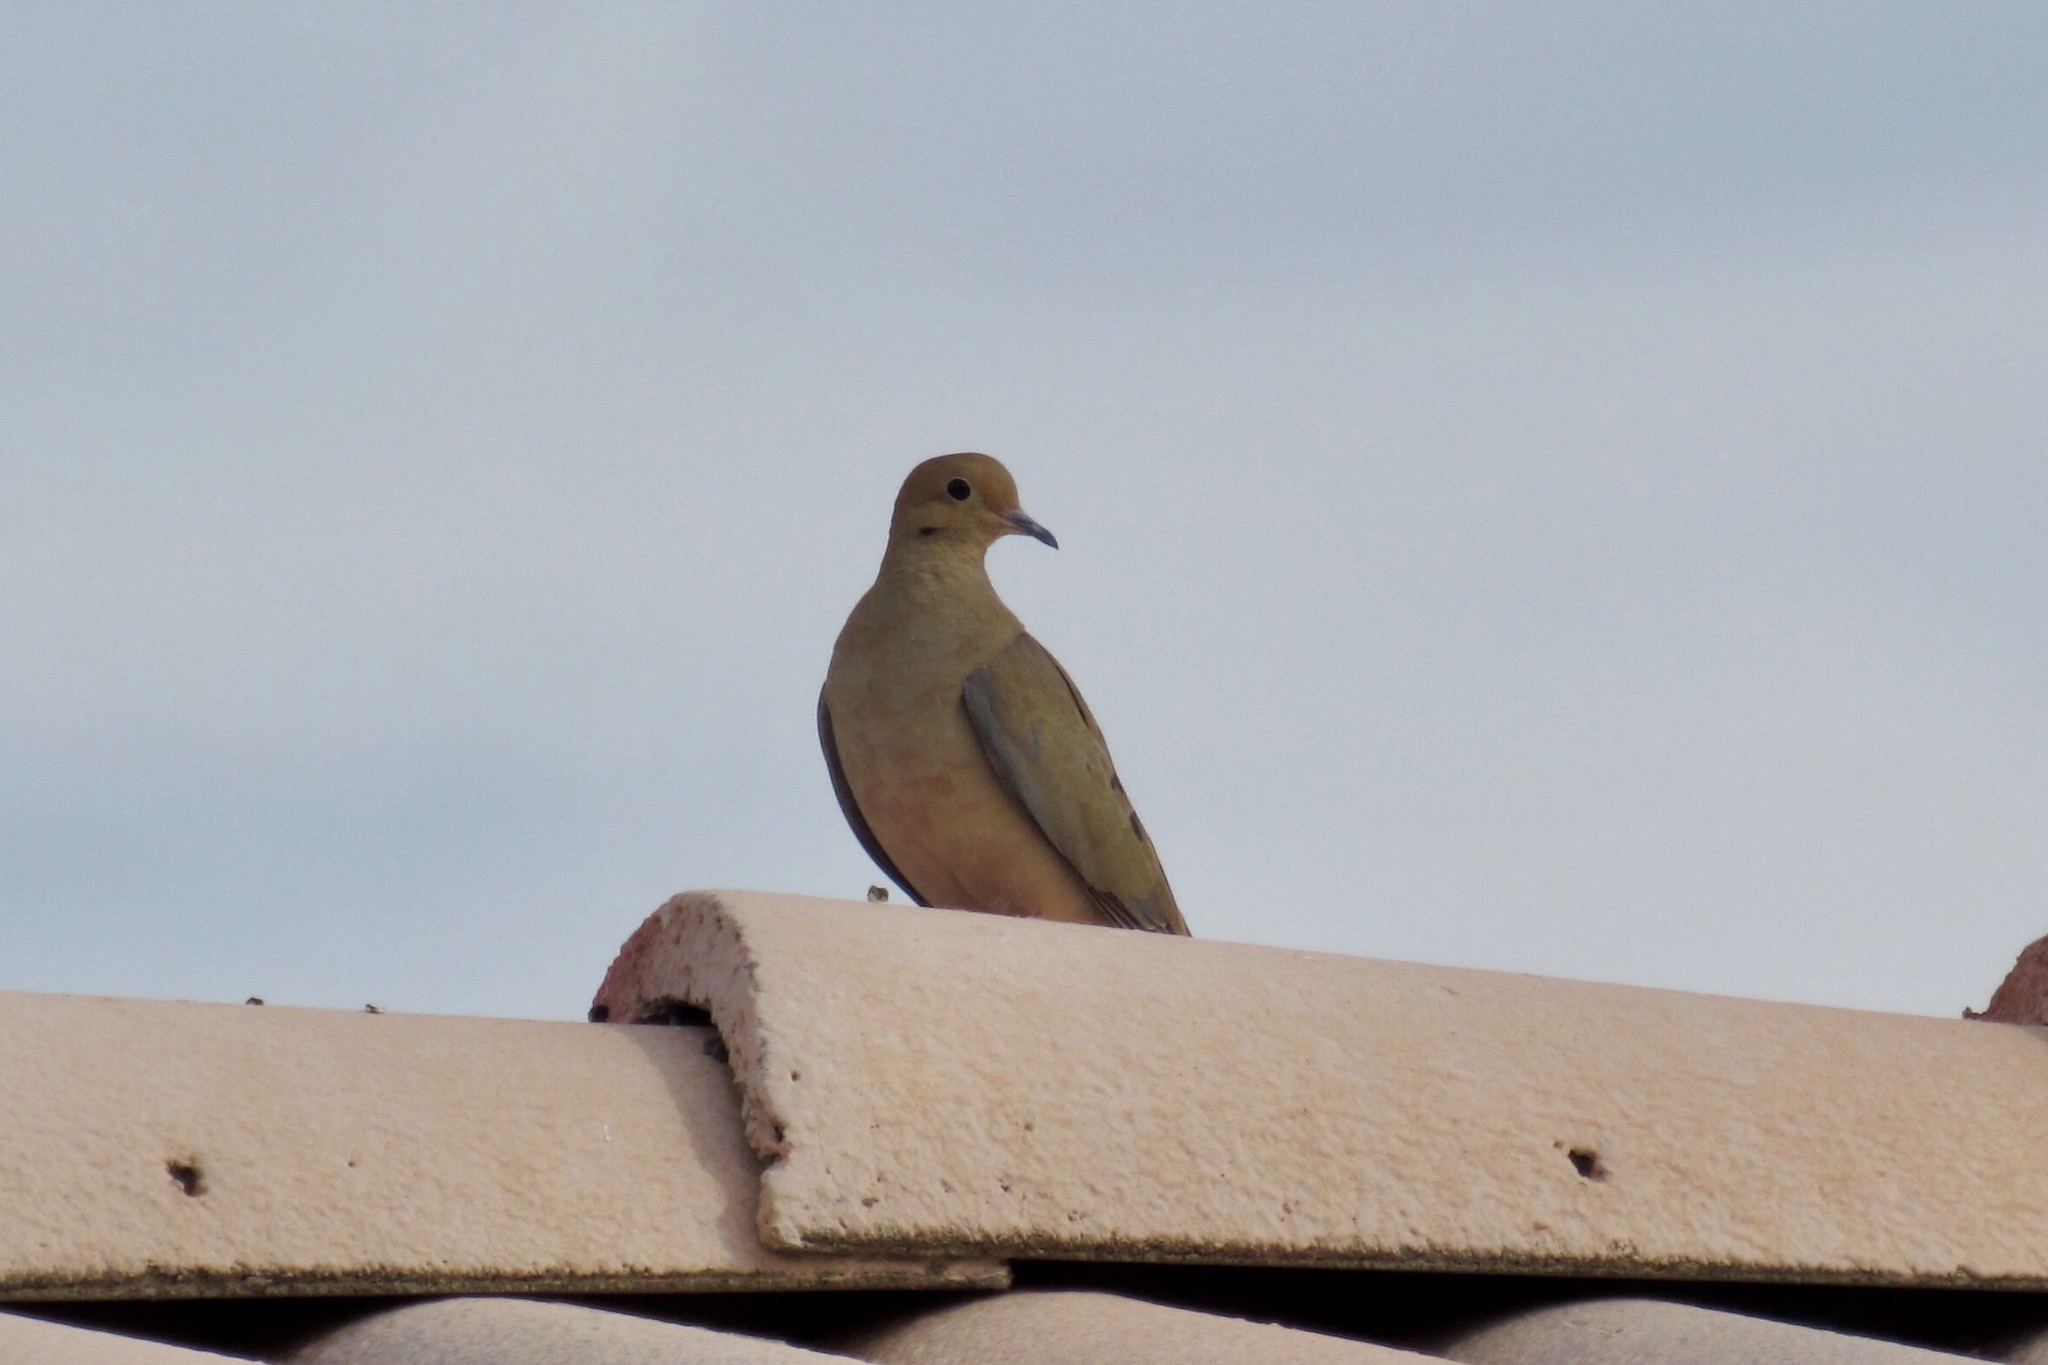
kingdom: Animalia
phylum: Chordata
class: Aves
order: Columbiformes
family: Columbidae
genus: Zenaida
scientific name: Zenaida macroura
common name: Mourning dove
